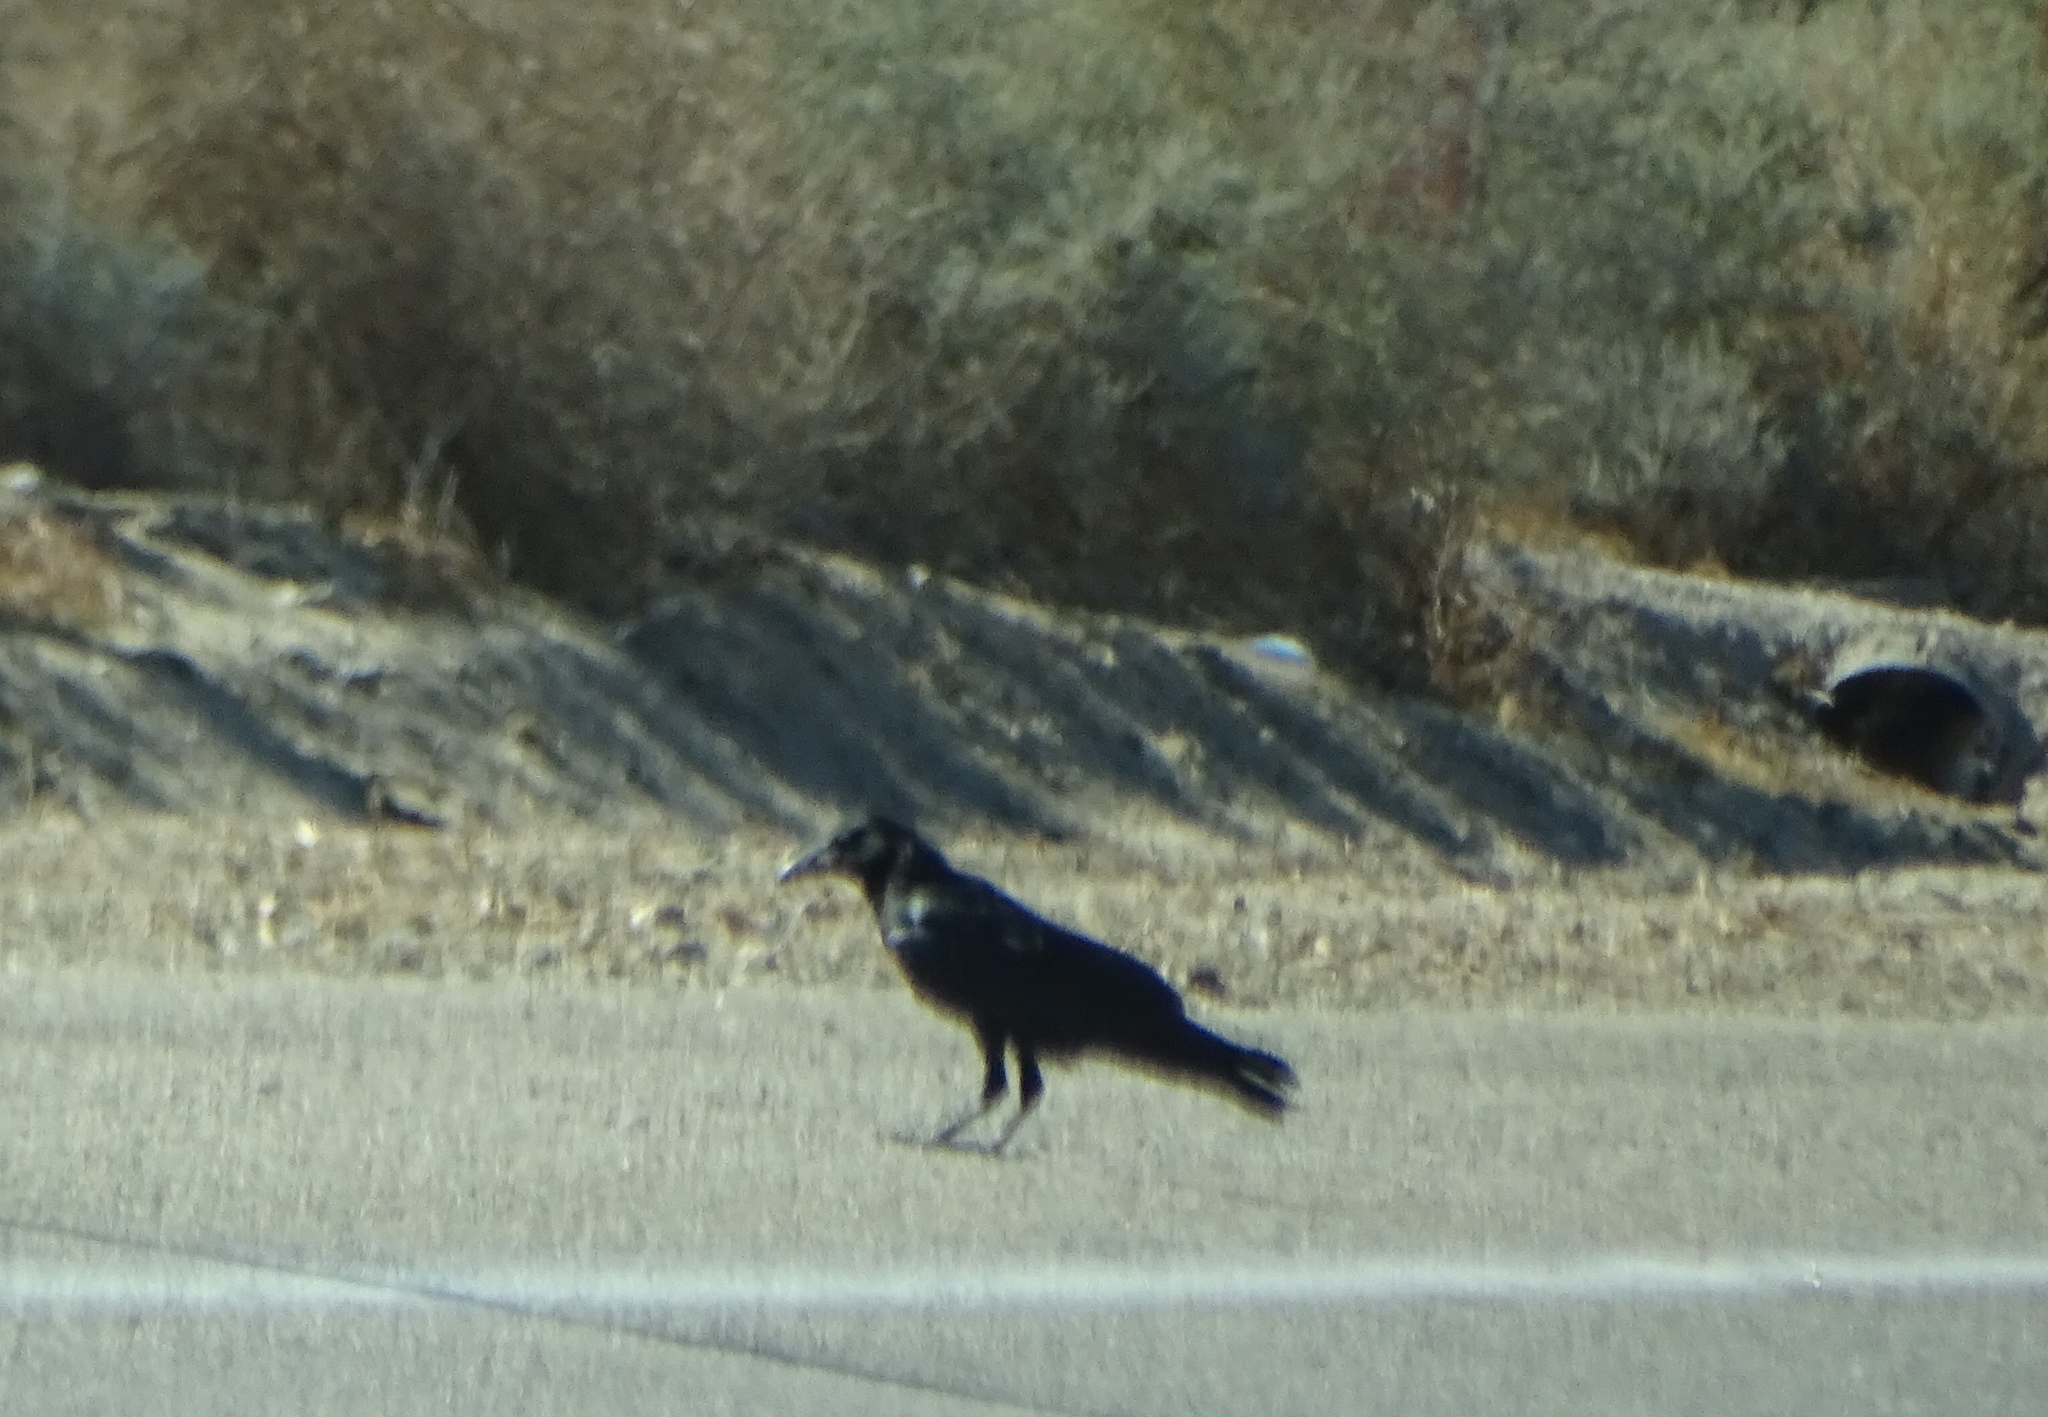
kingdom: Animalia
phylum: Chordata
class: Aves
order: Passeriformes
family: Corvidae
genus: Corvus
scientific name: Corvus corax
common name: Common raven
